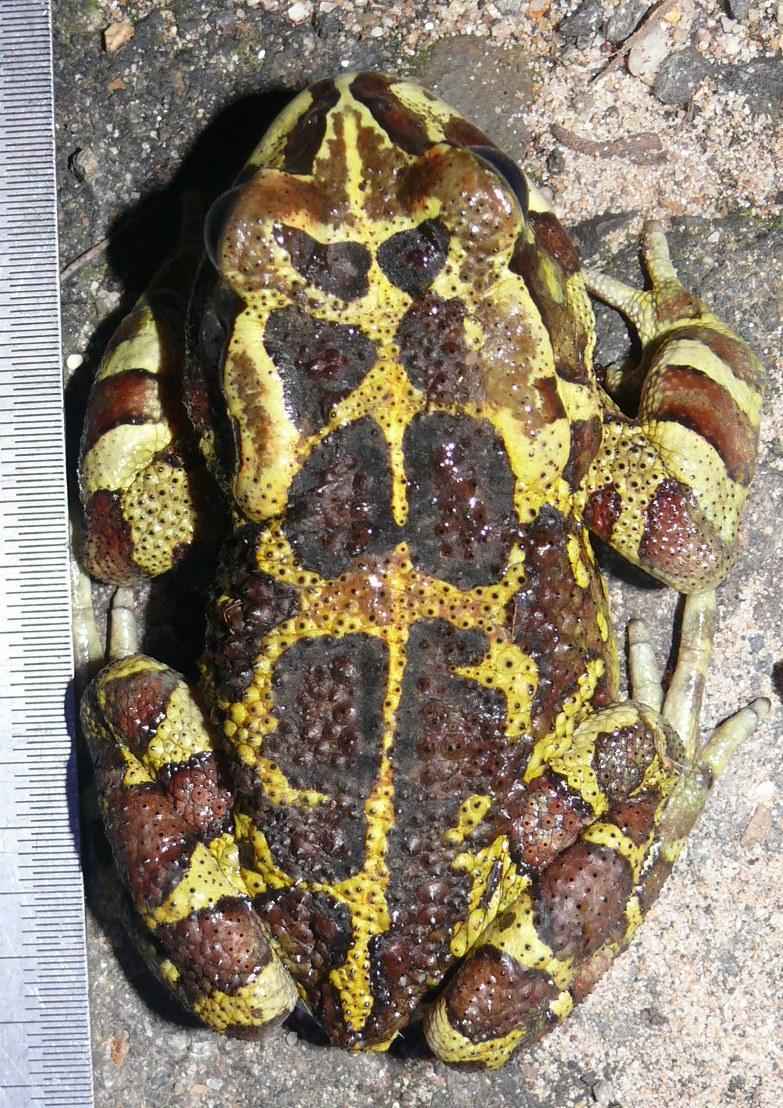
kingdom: Animalia
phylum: Chordata
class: Amphibia
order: Anura
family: Bufonidae
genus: Sclerophrys
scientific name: Sclerophrys pantherina
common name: Panther toad
